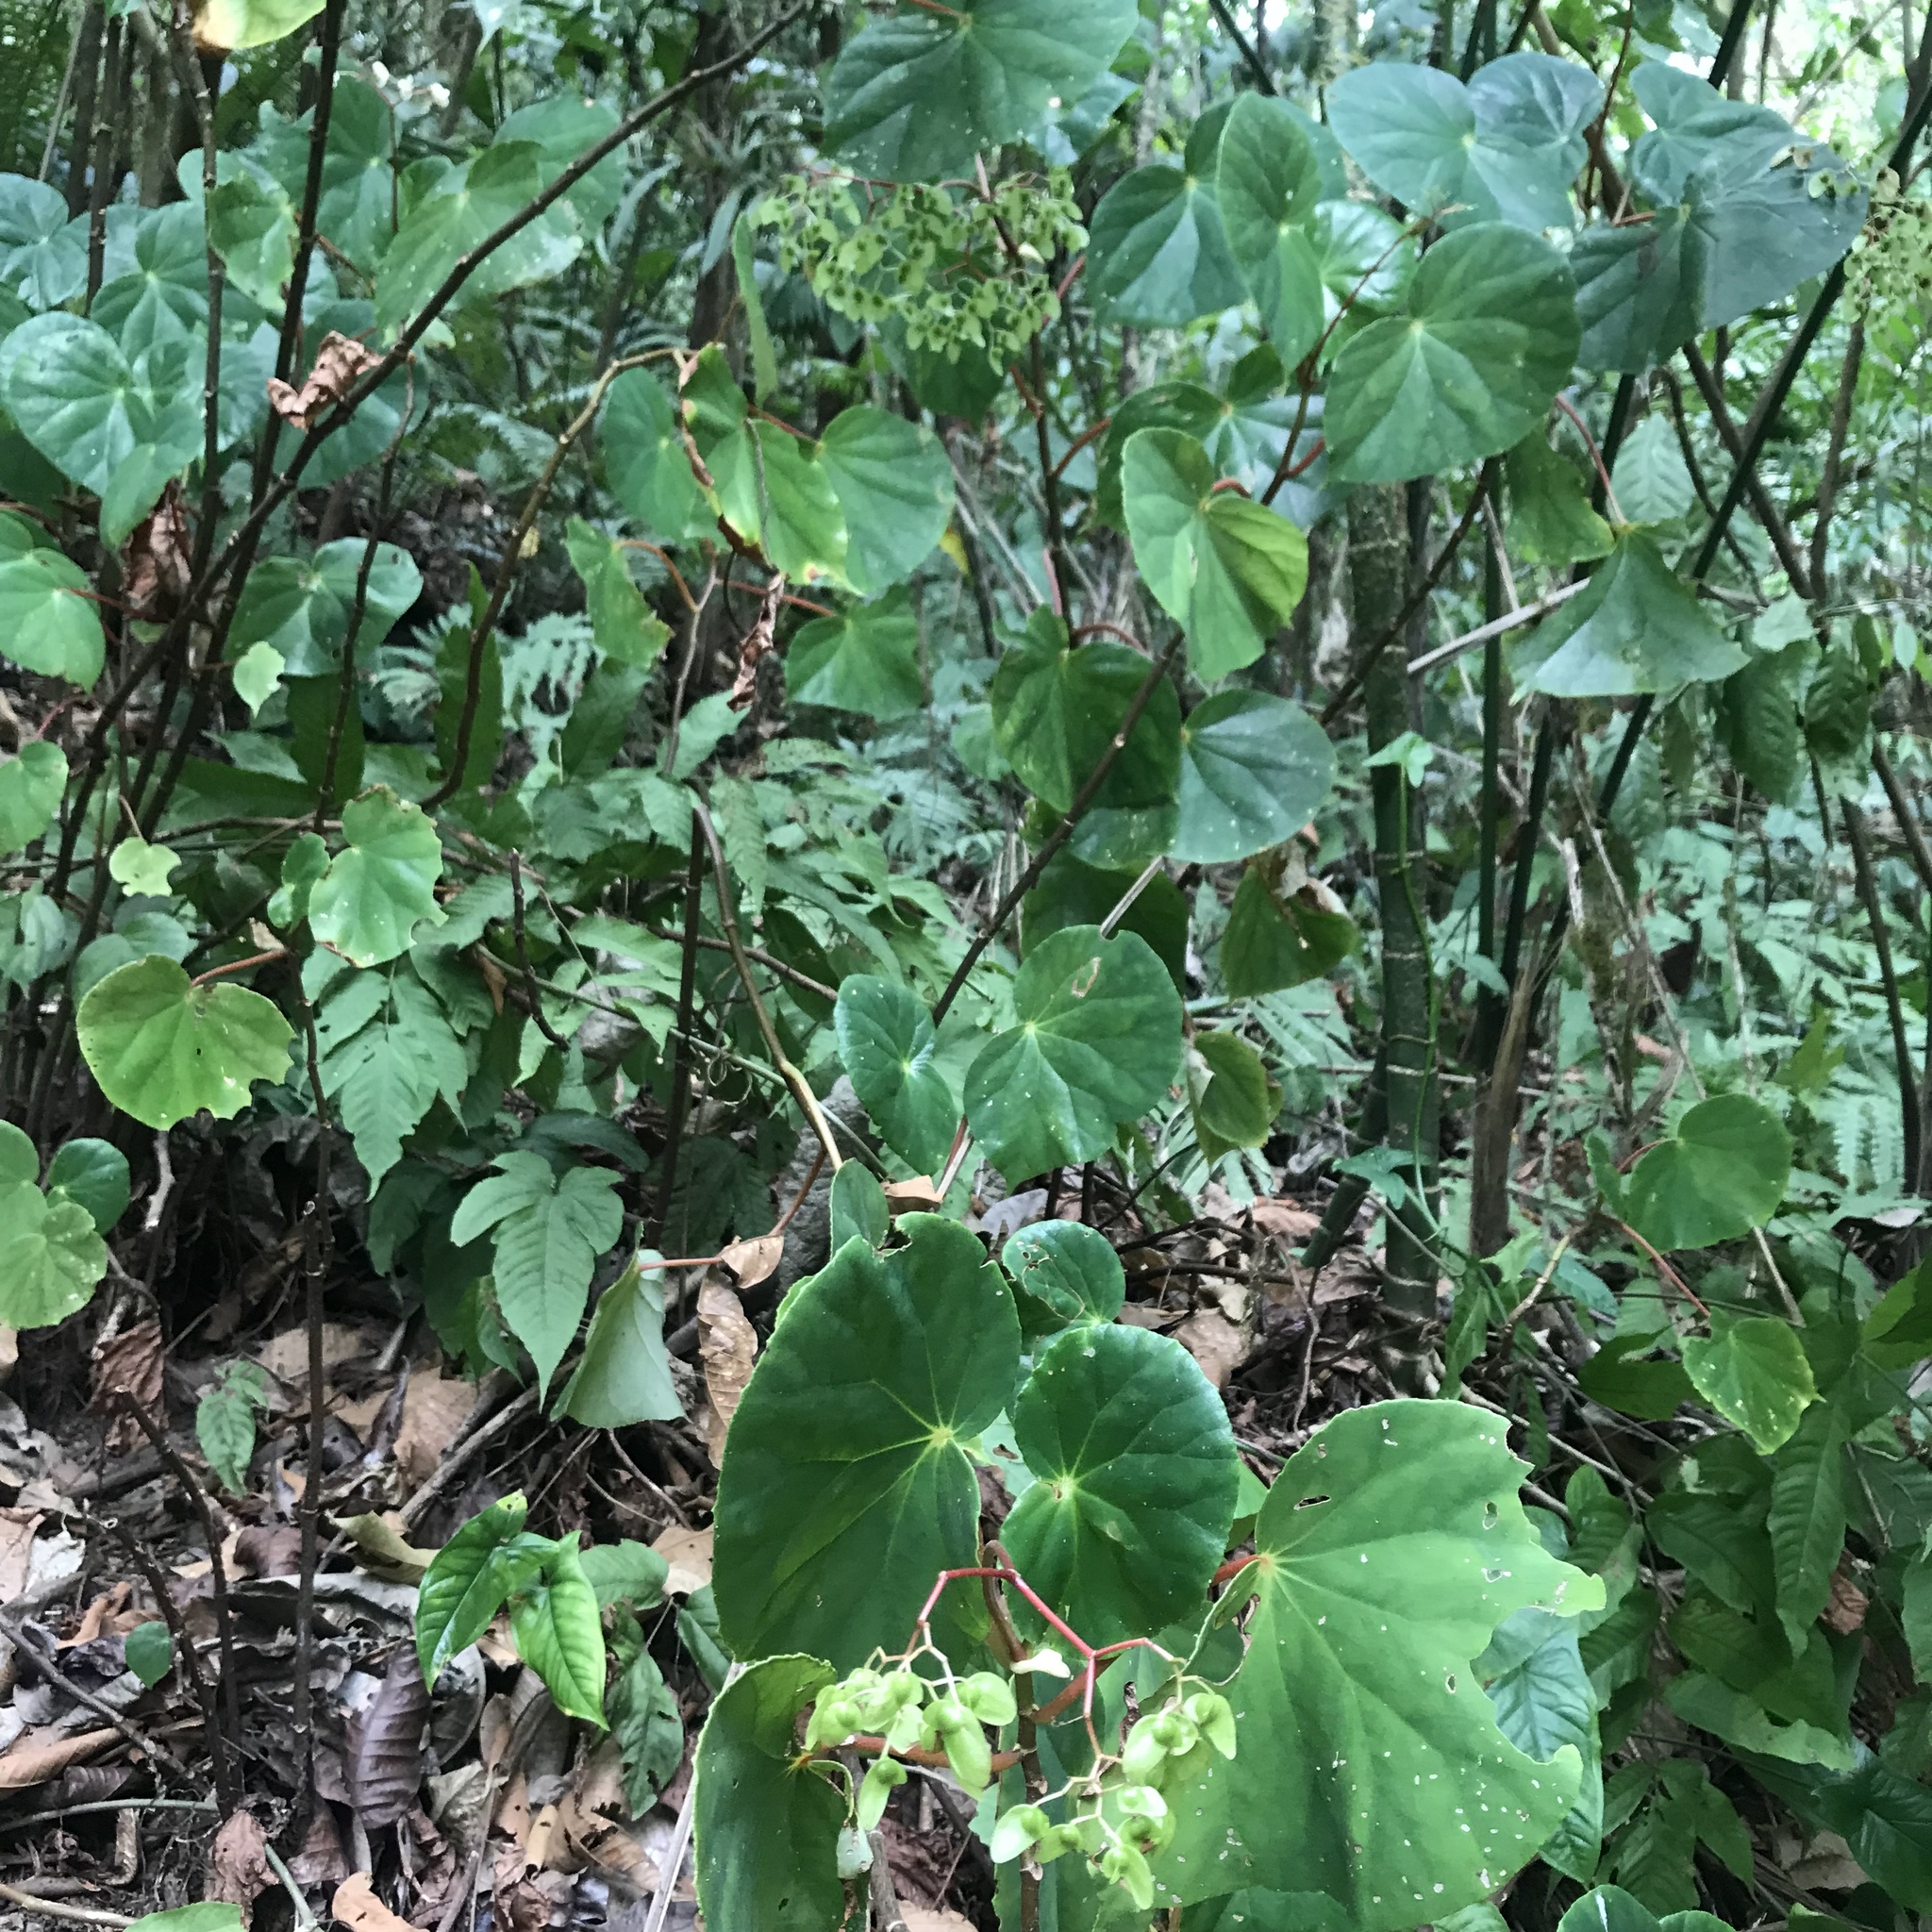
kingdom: Plantae
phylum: Tracheophyta
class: Magnoliopsida
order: Cucurbitales
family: Begoniaceae
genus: Begonia
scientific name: Begonia multinervia
